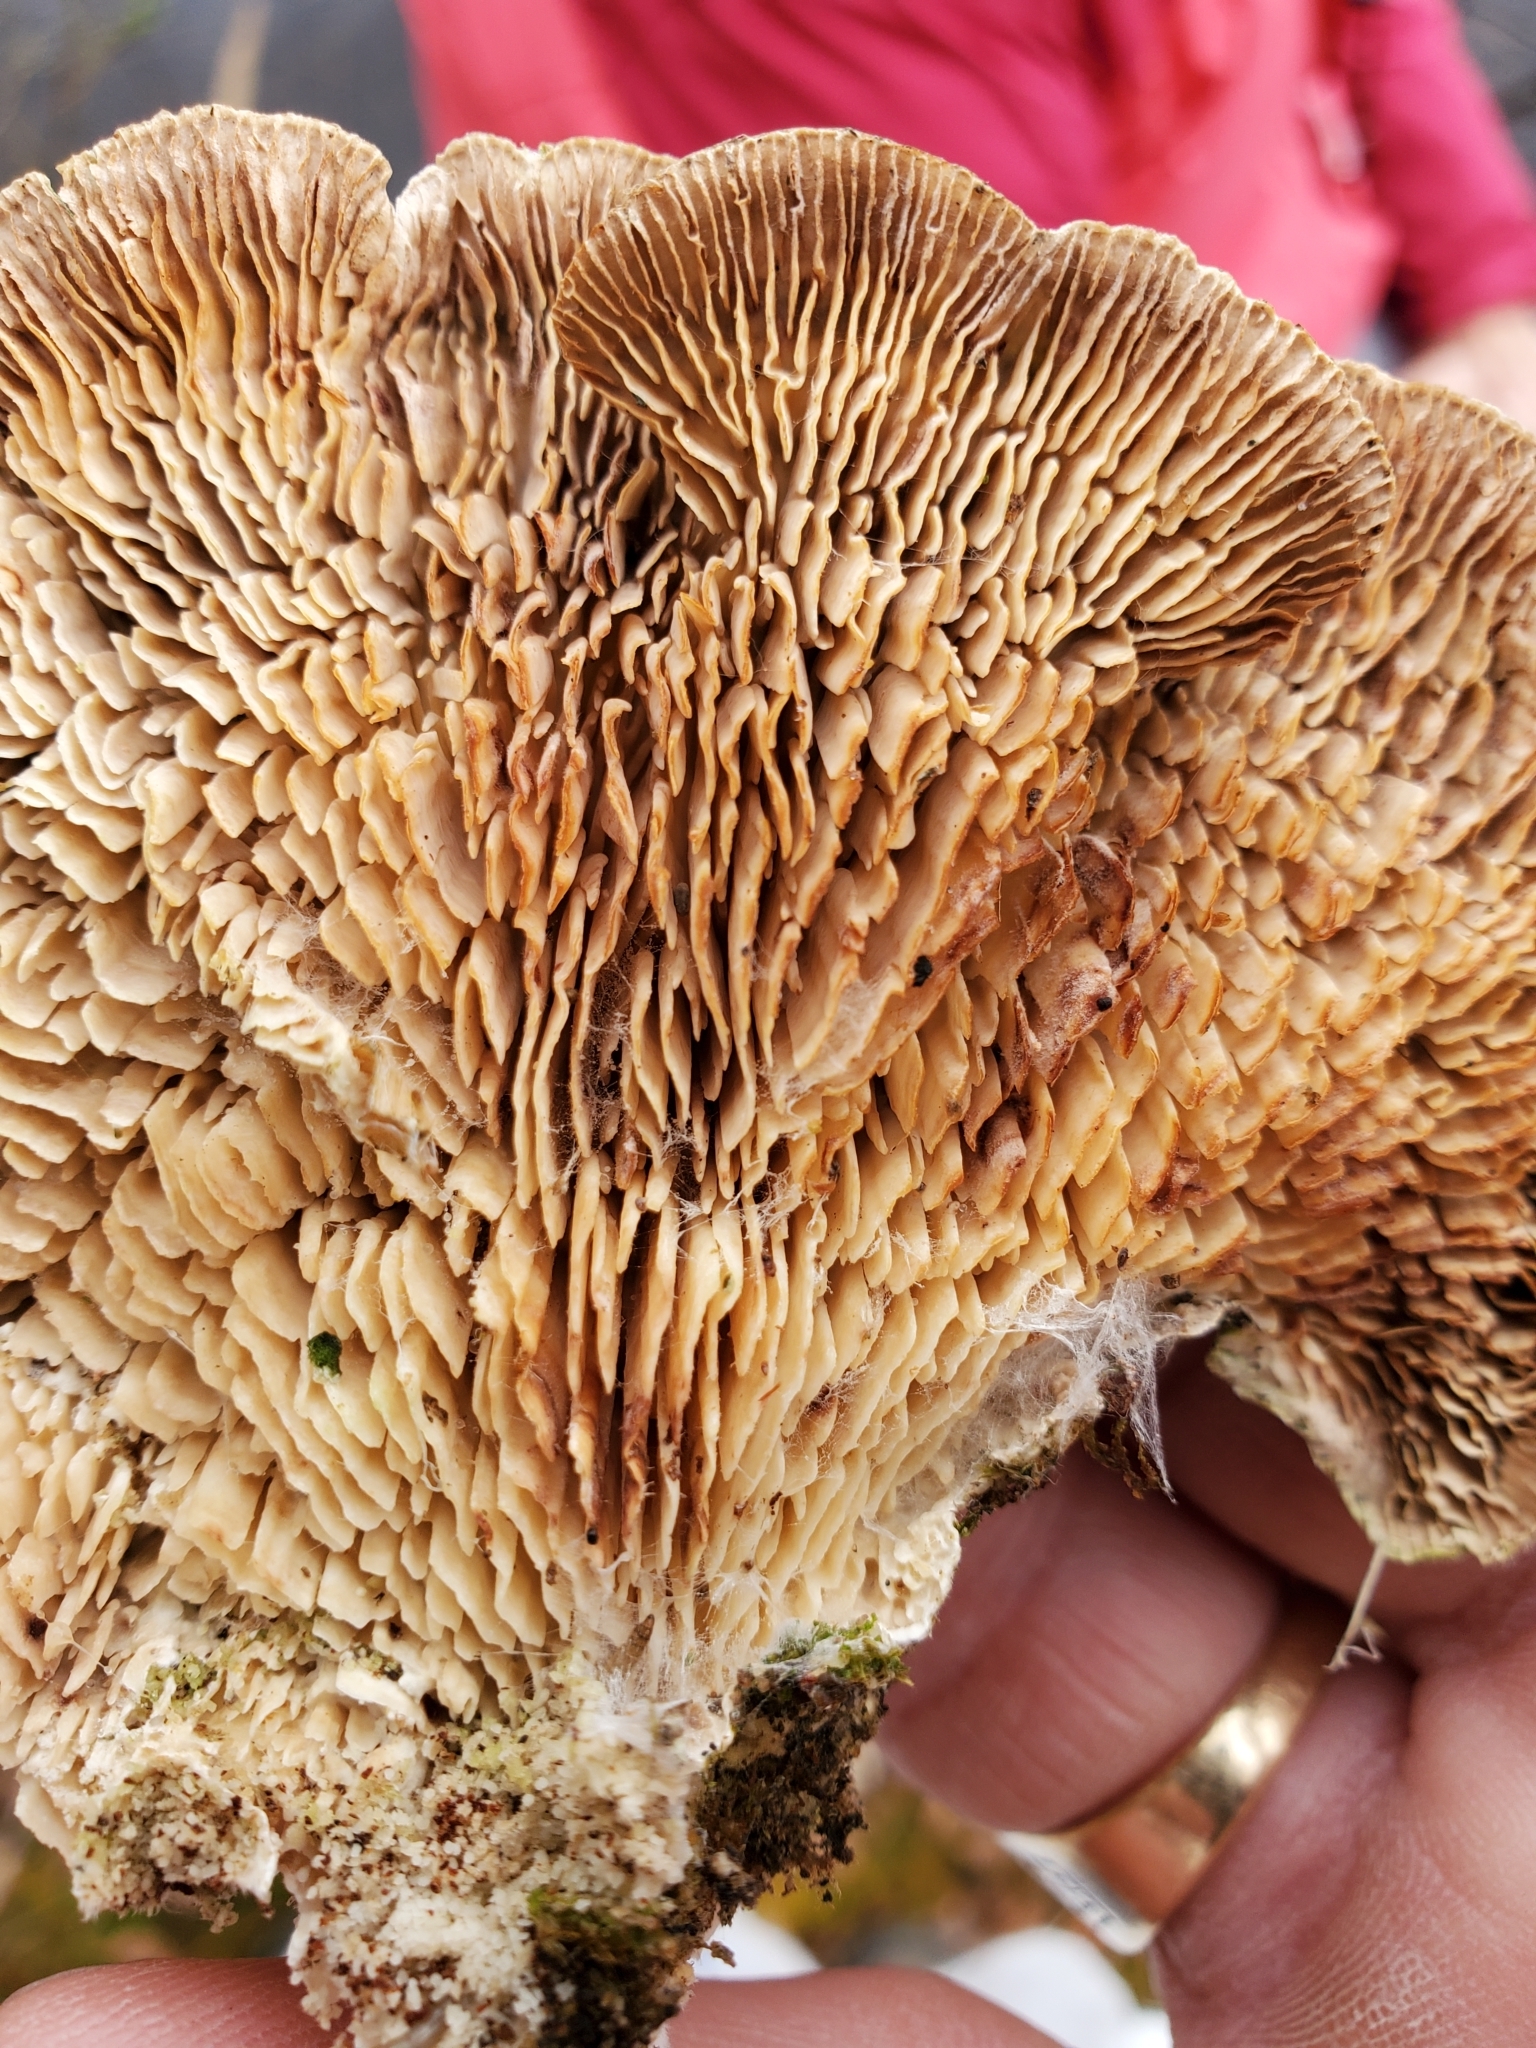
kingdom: Fungi
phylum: Basidiomycota
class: Agaricomycetes
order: Polyporales
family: Polyporaceae
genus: Lenzites
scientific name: Lenzites betulinus
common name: Birch mazegill
